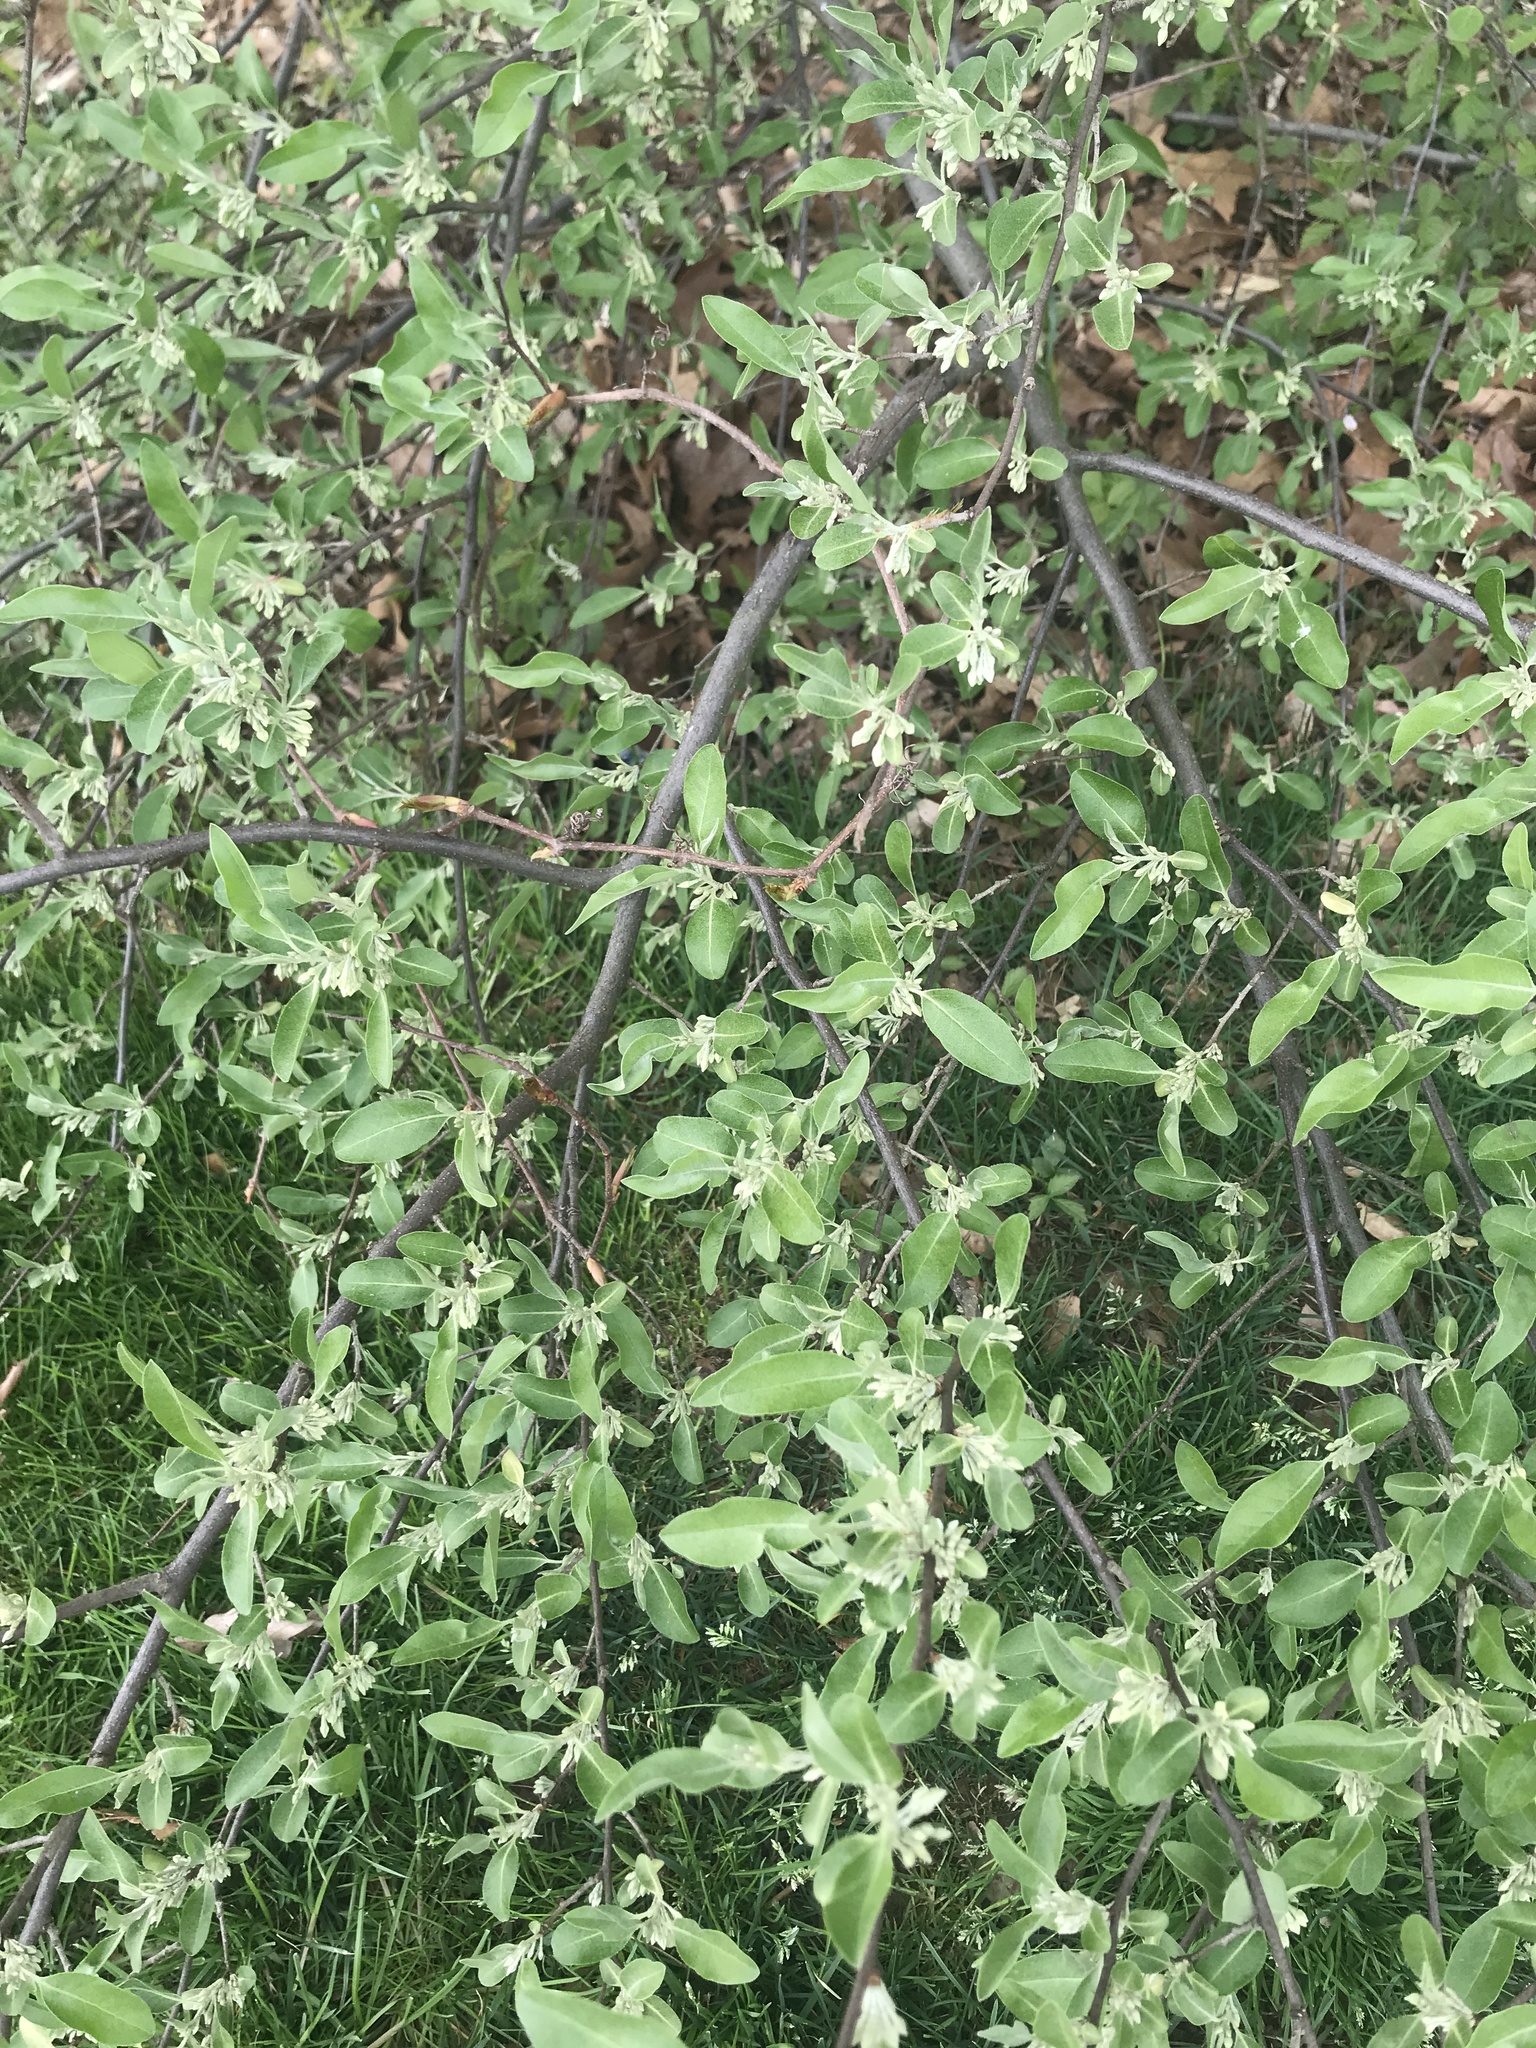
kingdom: Plantae
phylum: Tracheophyta
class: Magnoliopsida
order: Rosales
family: Elaeagnaceae
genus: Elaeagnus
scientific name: Elaeagnus umbellata
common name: Autumn olive
